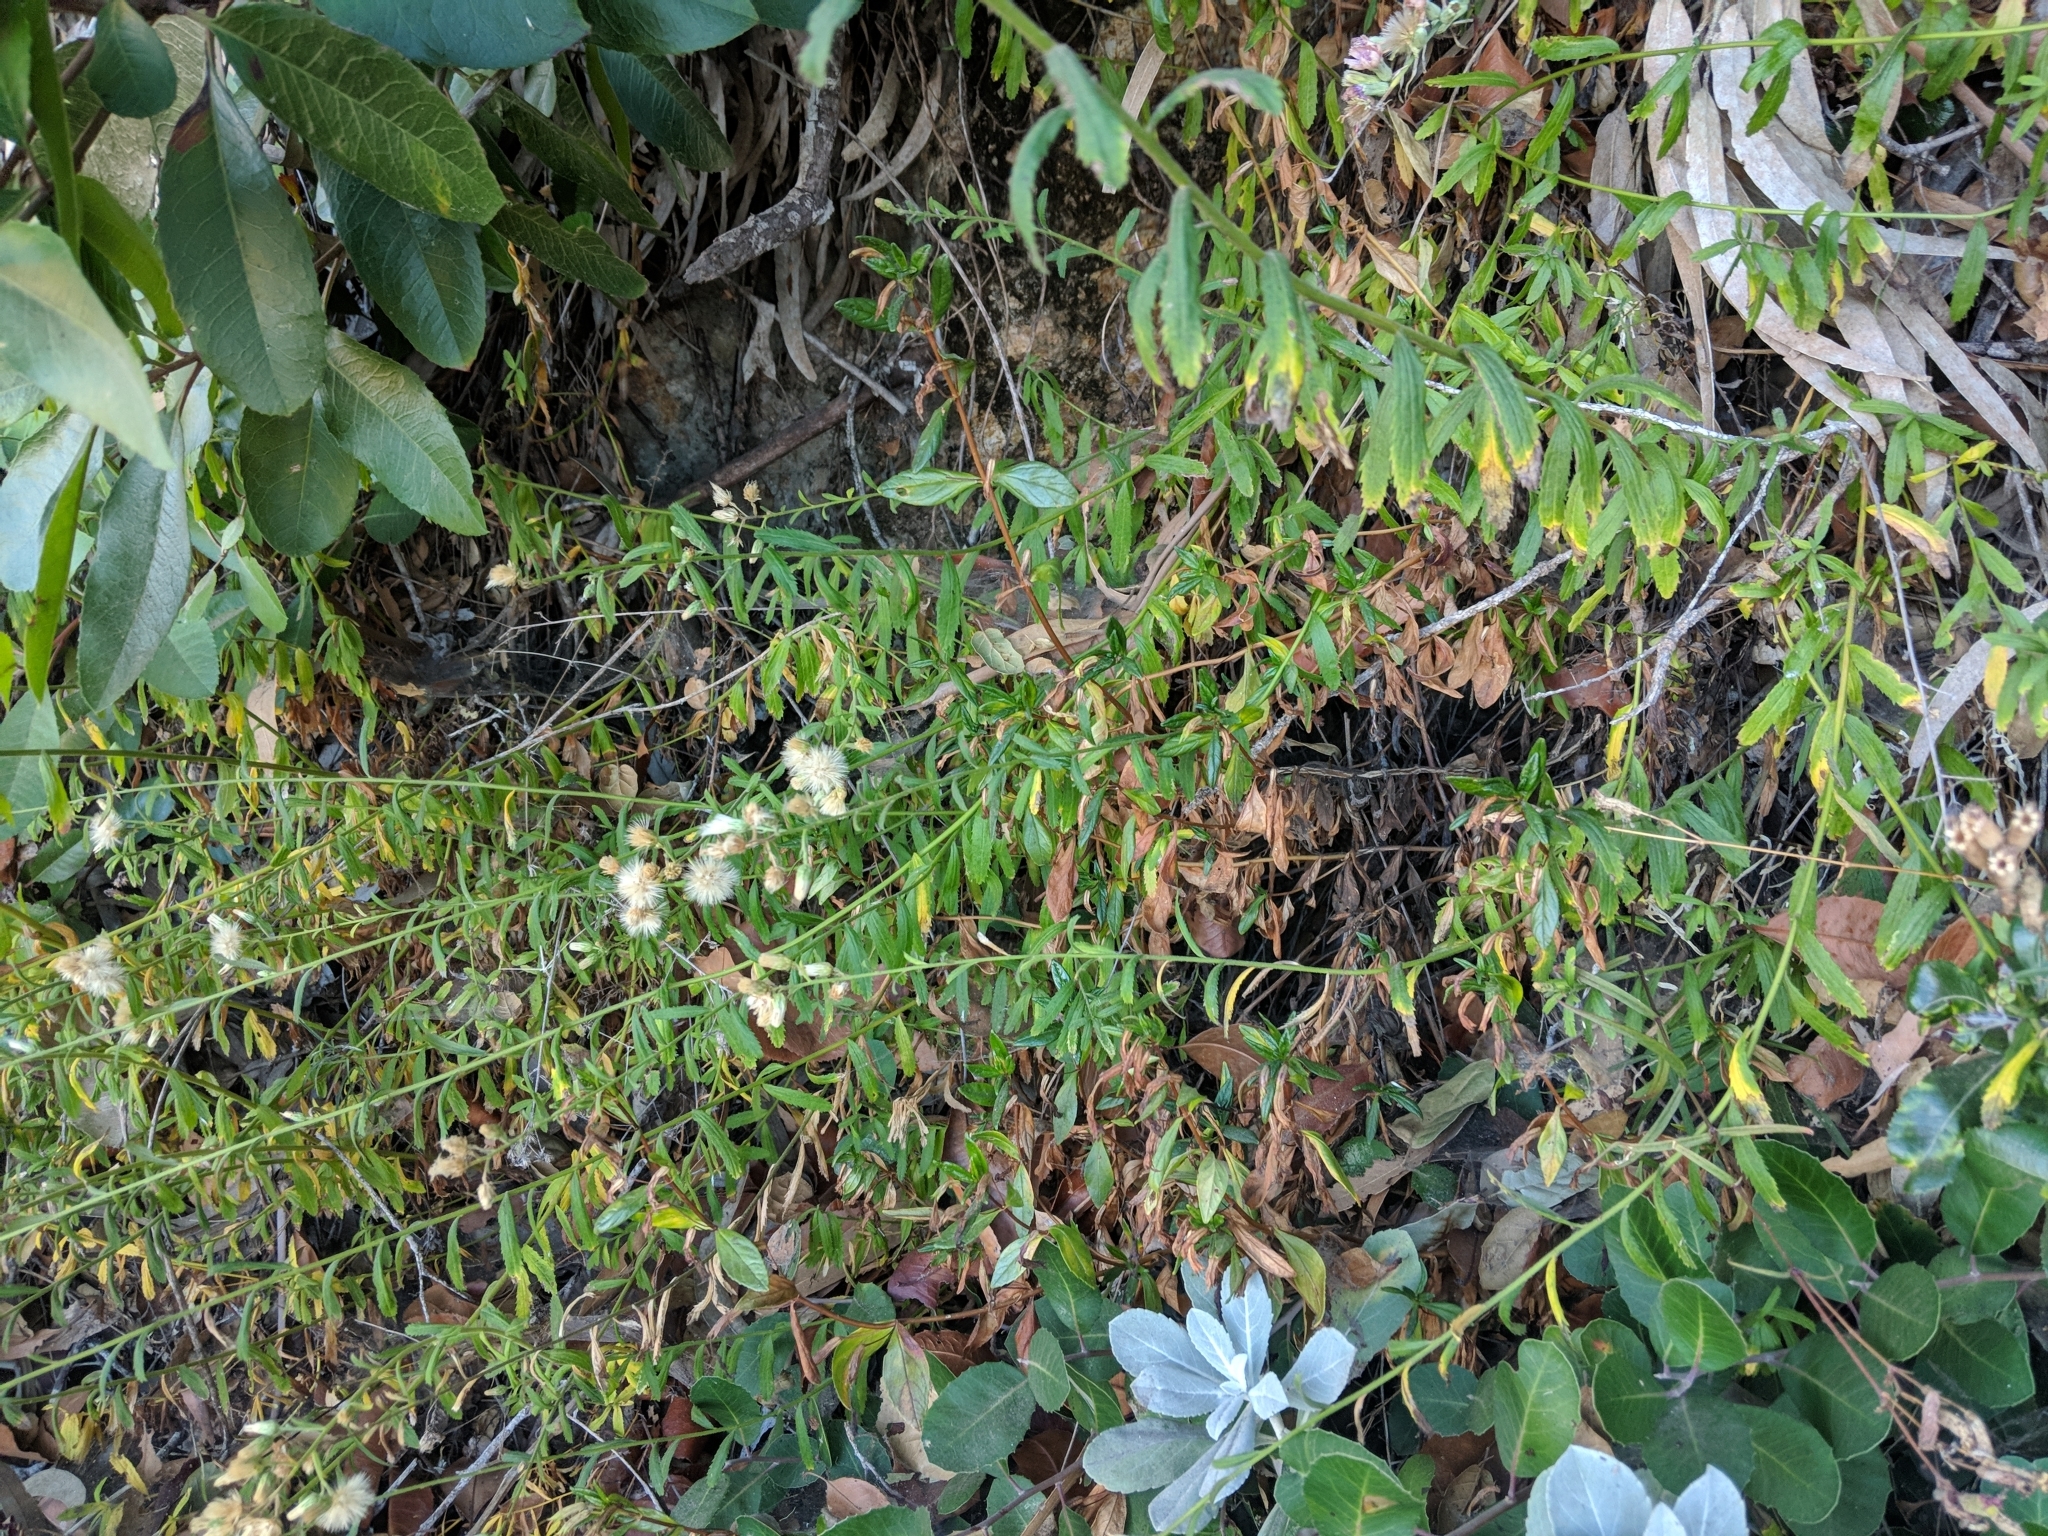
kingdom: Plantae
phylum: Tracheophyta
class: Magnoliopsida
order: Asterales
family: Asteraceae
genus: Baccharis
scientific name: Baccharis plummerae
